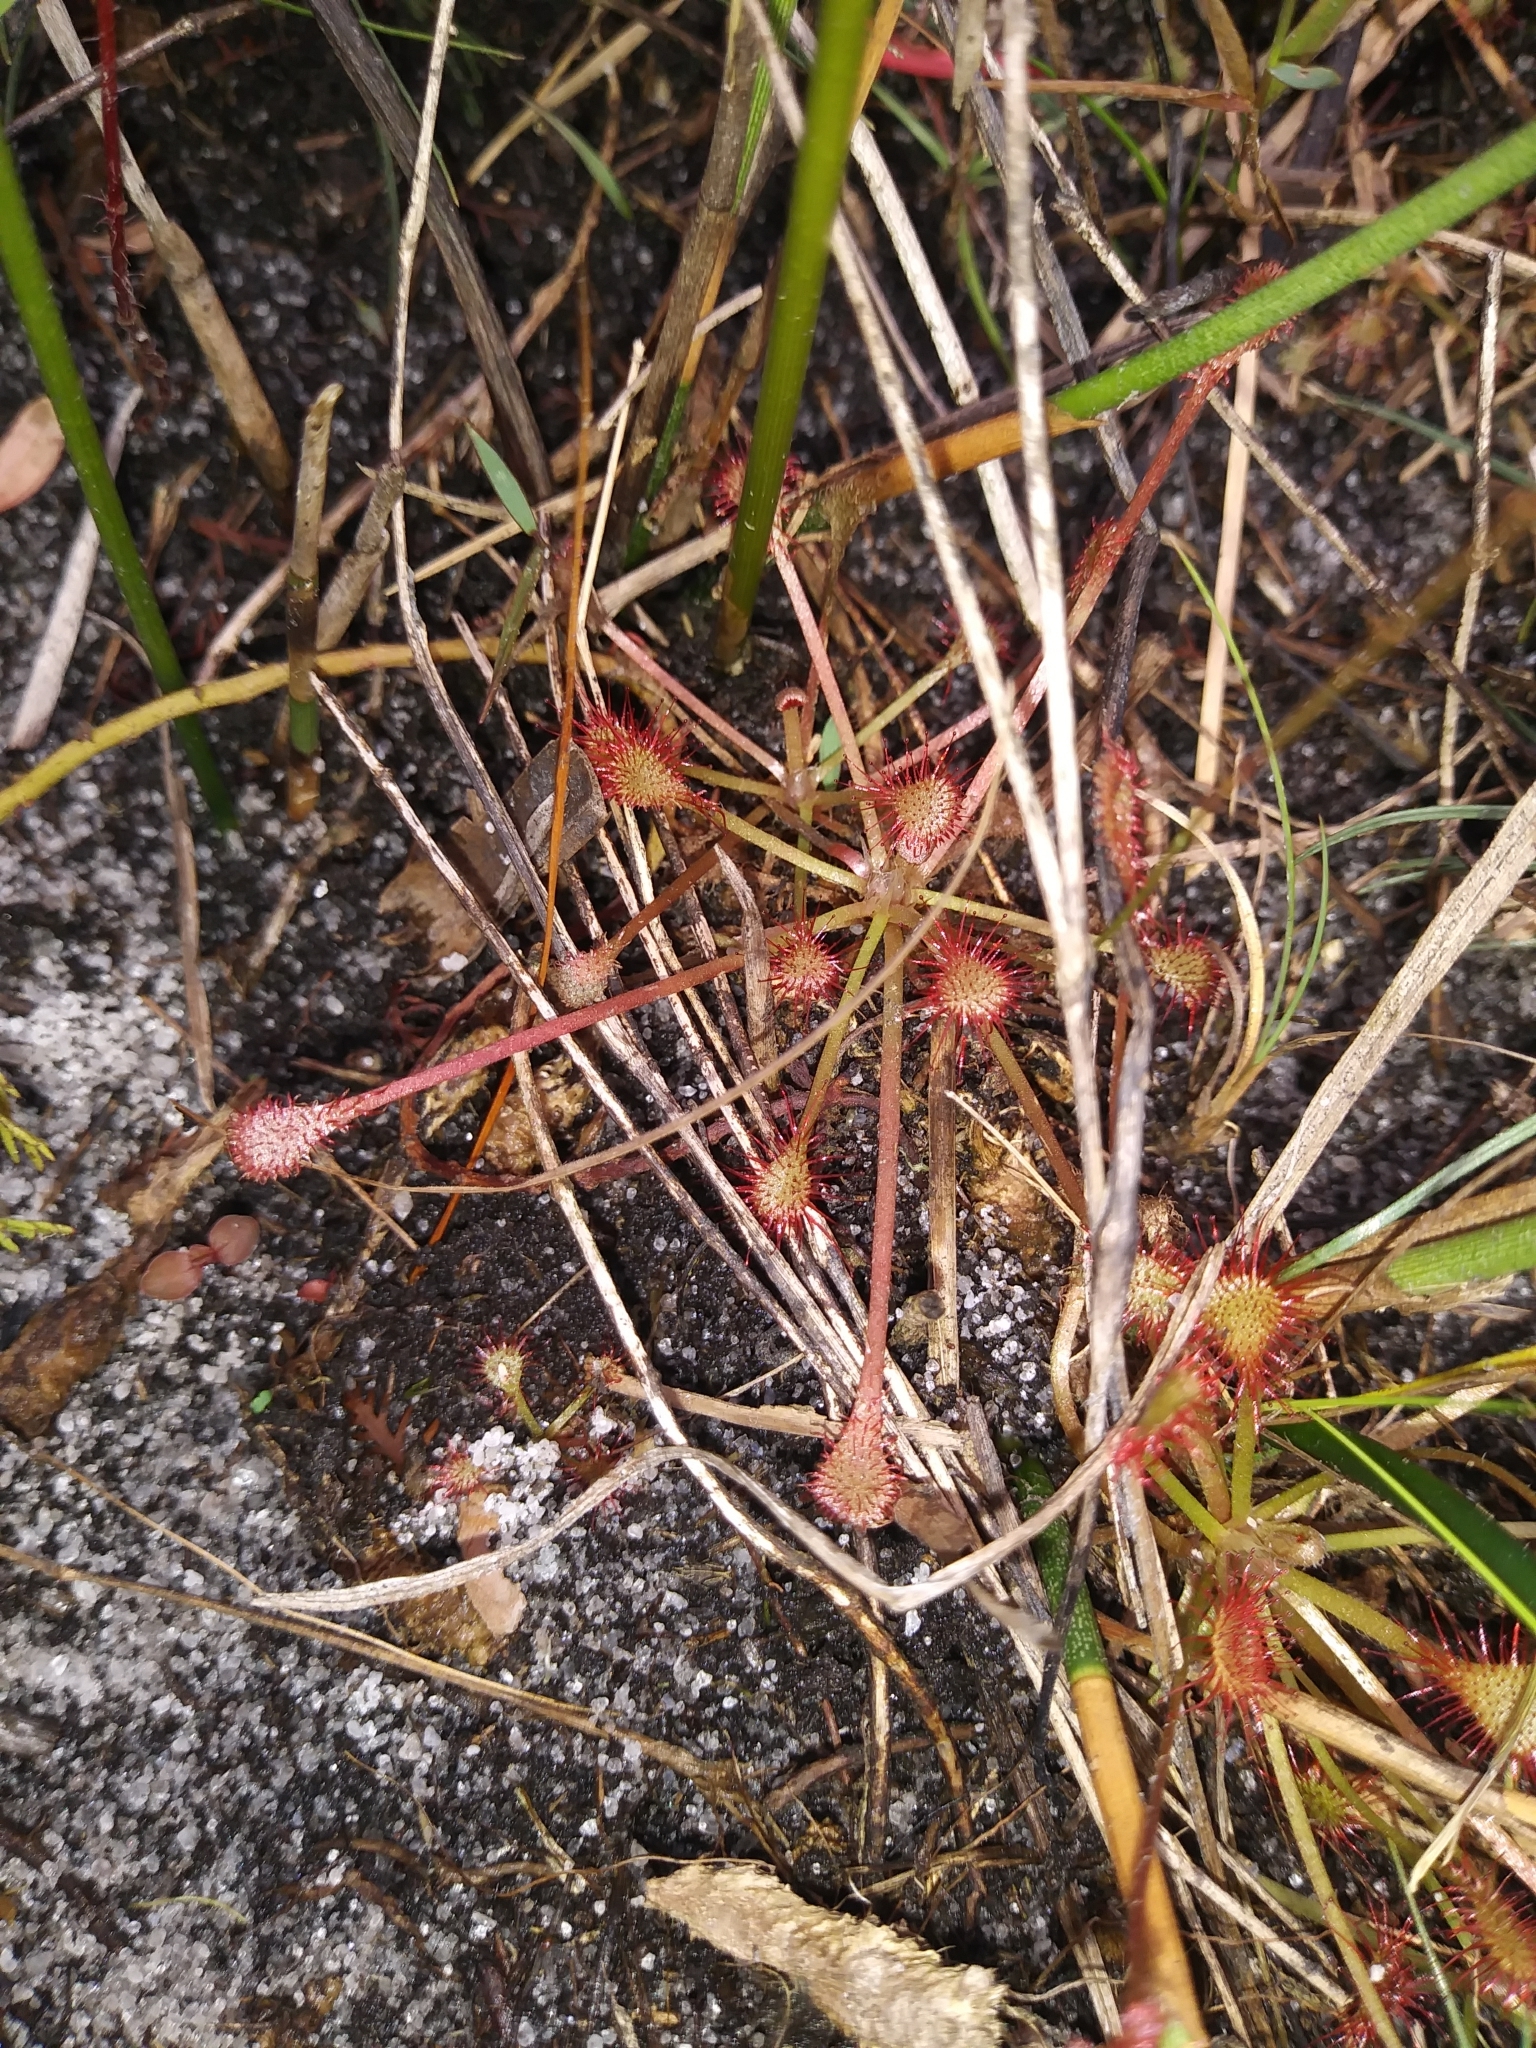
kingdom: Plantae
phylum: Tracheophyta
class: Magnoliopsida
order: Caryophyllales
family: Droseraceae
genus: Drosera
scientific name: Drosera capillaris
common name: Pink sundew
